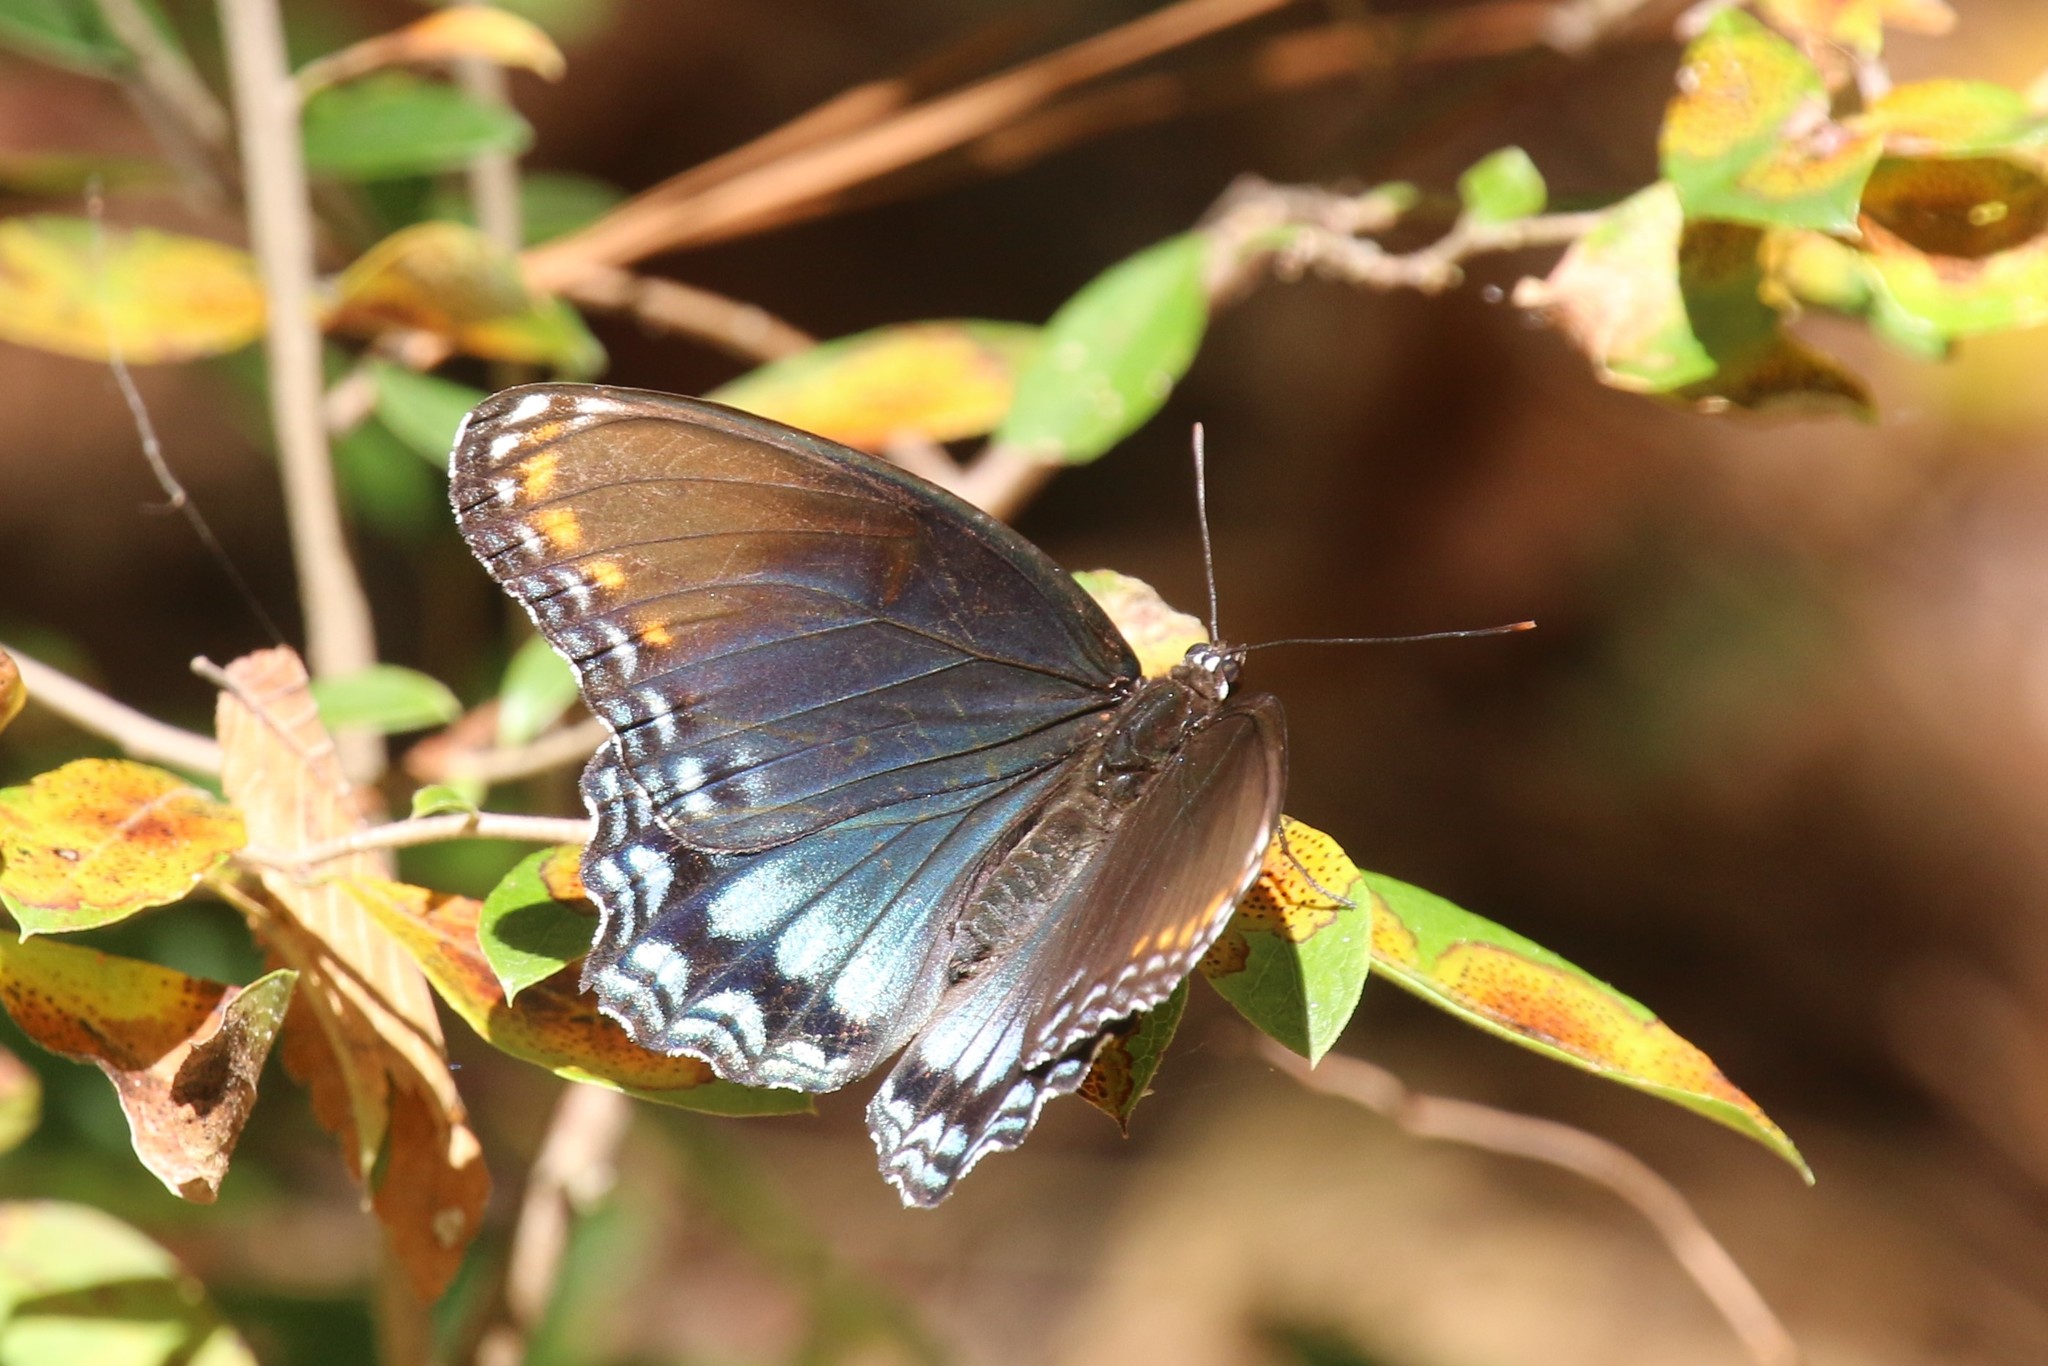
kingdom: Animalia
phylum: Arthropoda
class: Insecta
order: Lepidoptera
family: Nymphalidae
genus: Limenitis
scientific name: Limenitis astyanax
